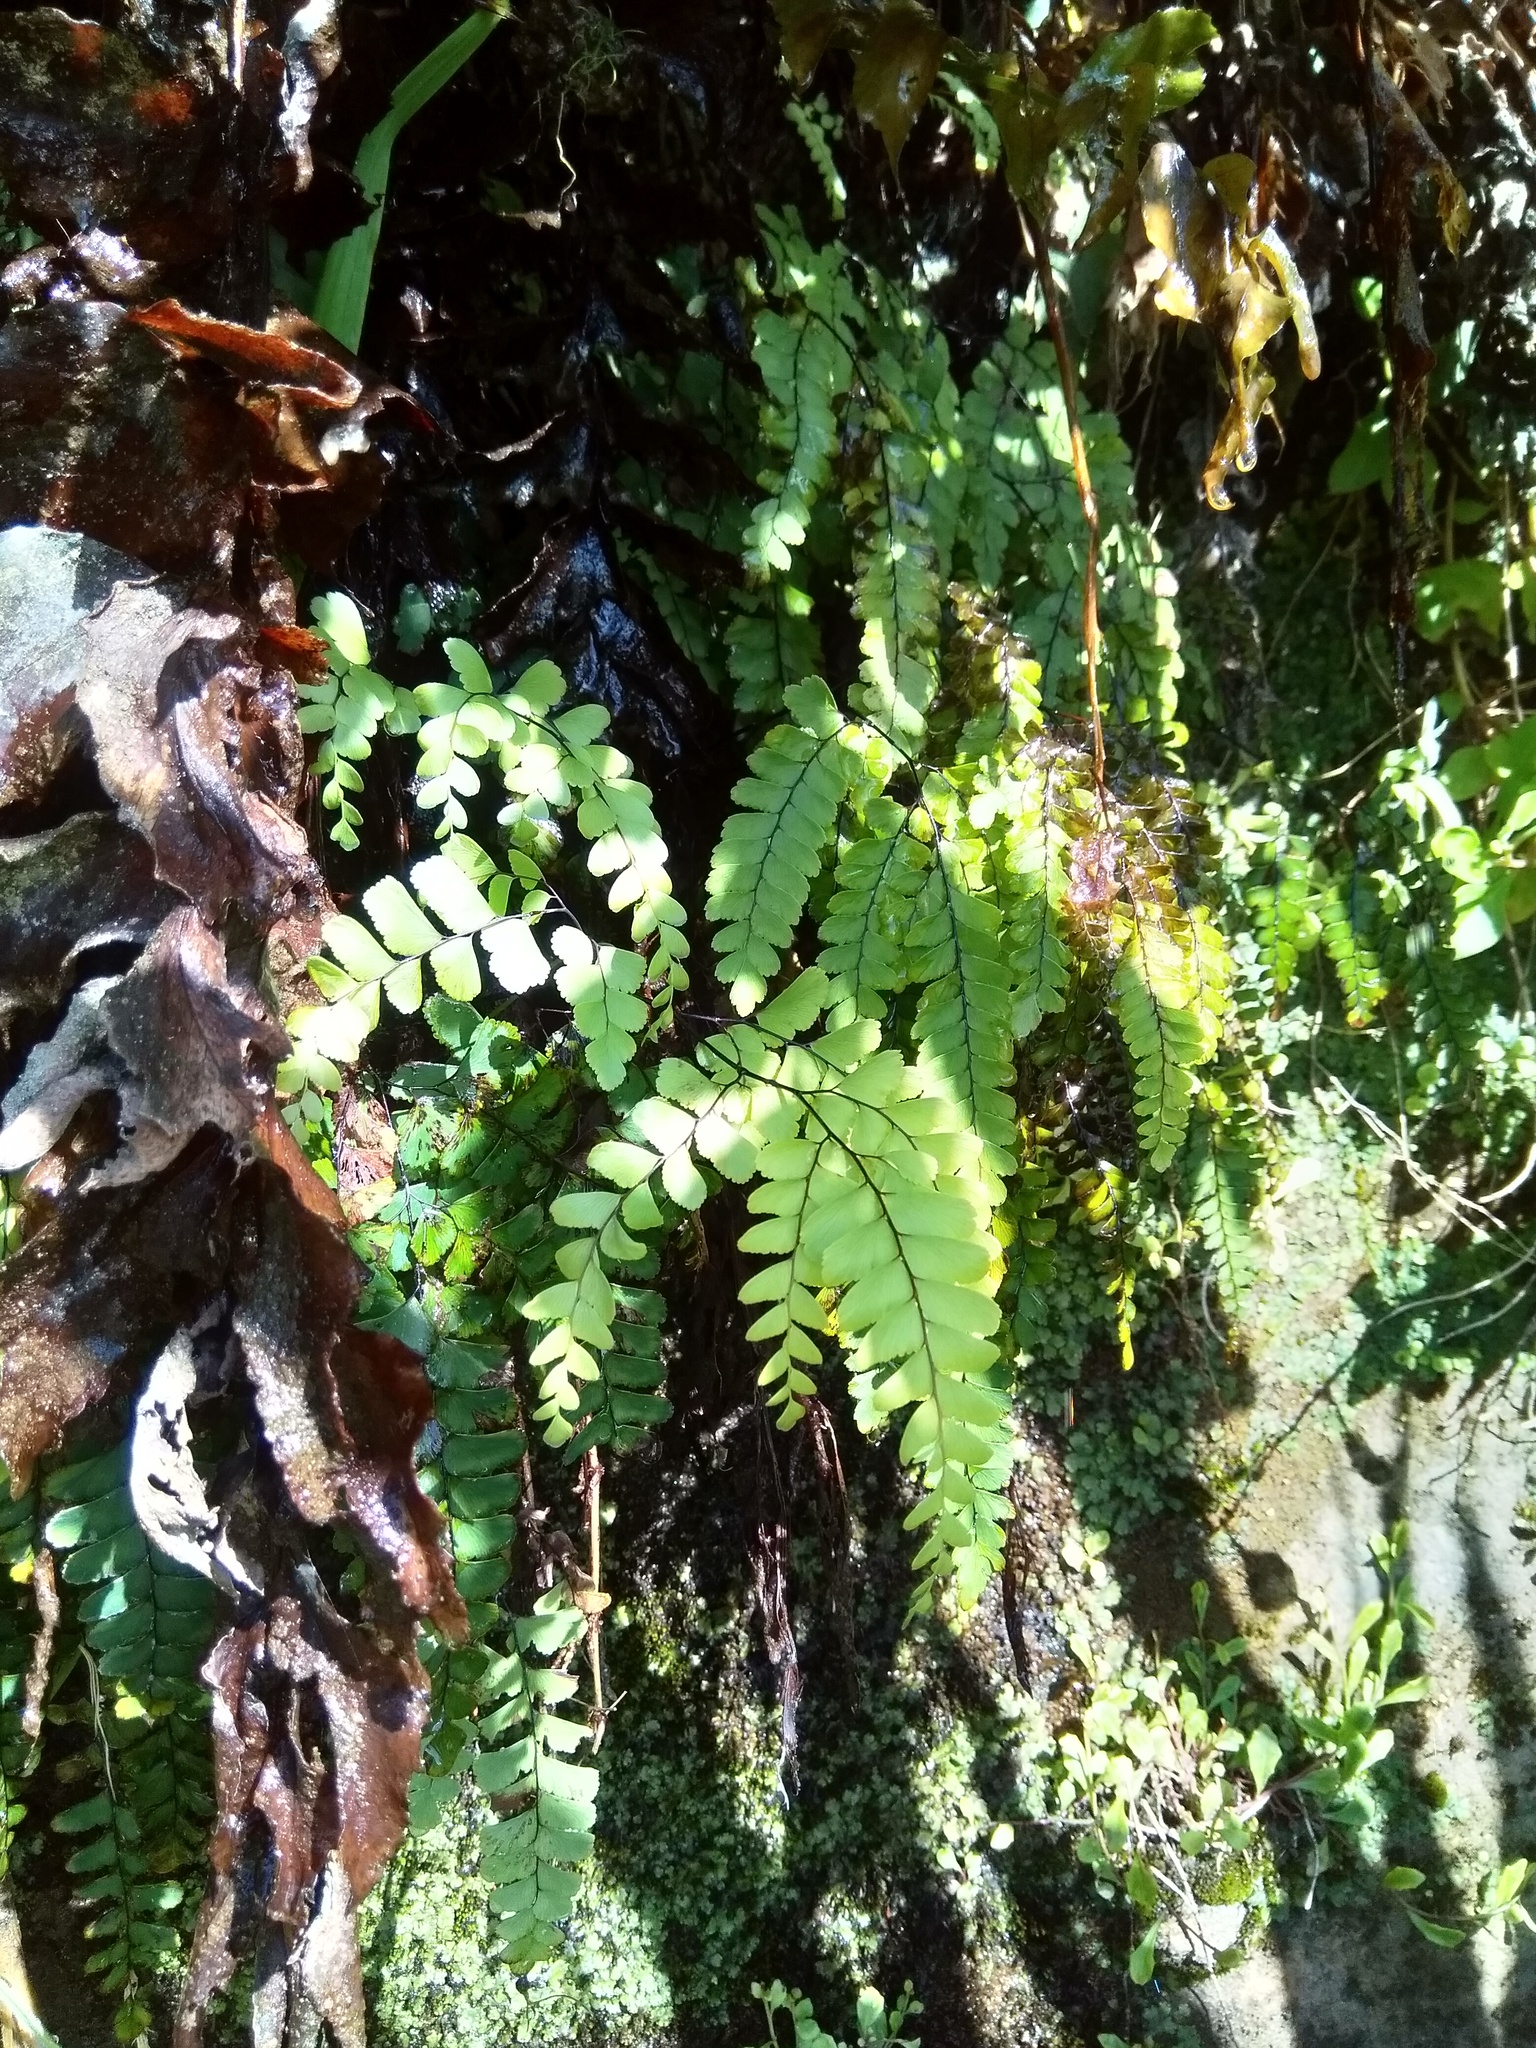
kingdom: Plantae
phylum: Tracheophyta
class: Polypodiopsida
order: Polypodiales
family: Pteridaceae
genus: Adiantum
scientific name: Adiantum cunninghamii
